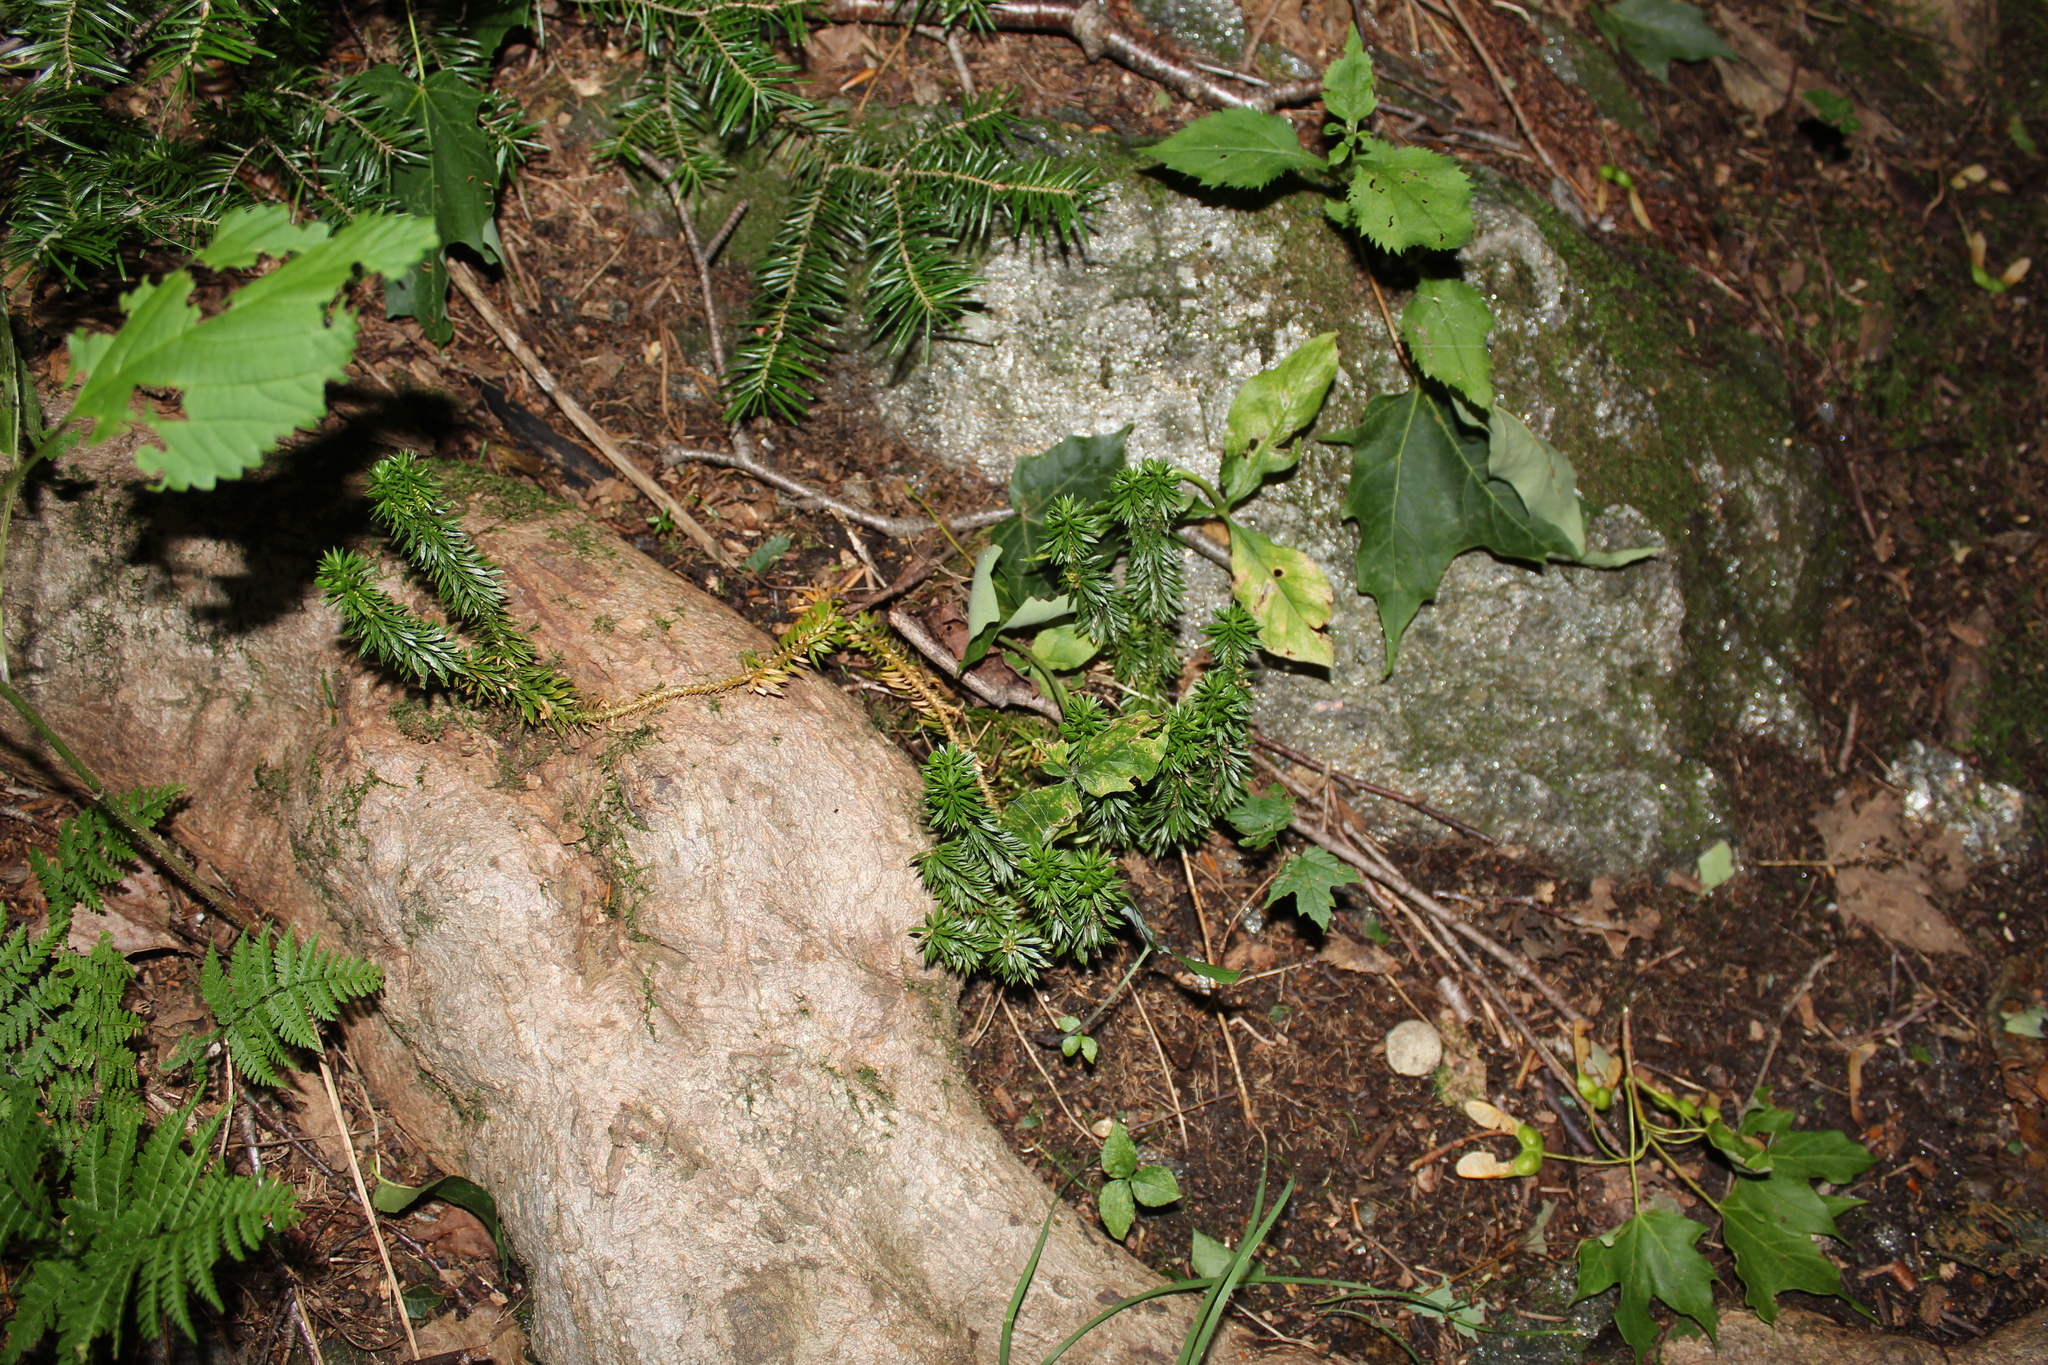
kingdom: Plantae
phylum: Tracheophyta
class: Lycopodiopsida
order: Lycopodiales
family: Lycopodiaceae
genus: Huperzia
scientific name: Huperzia lucidula
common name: Shining clubmoss
